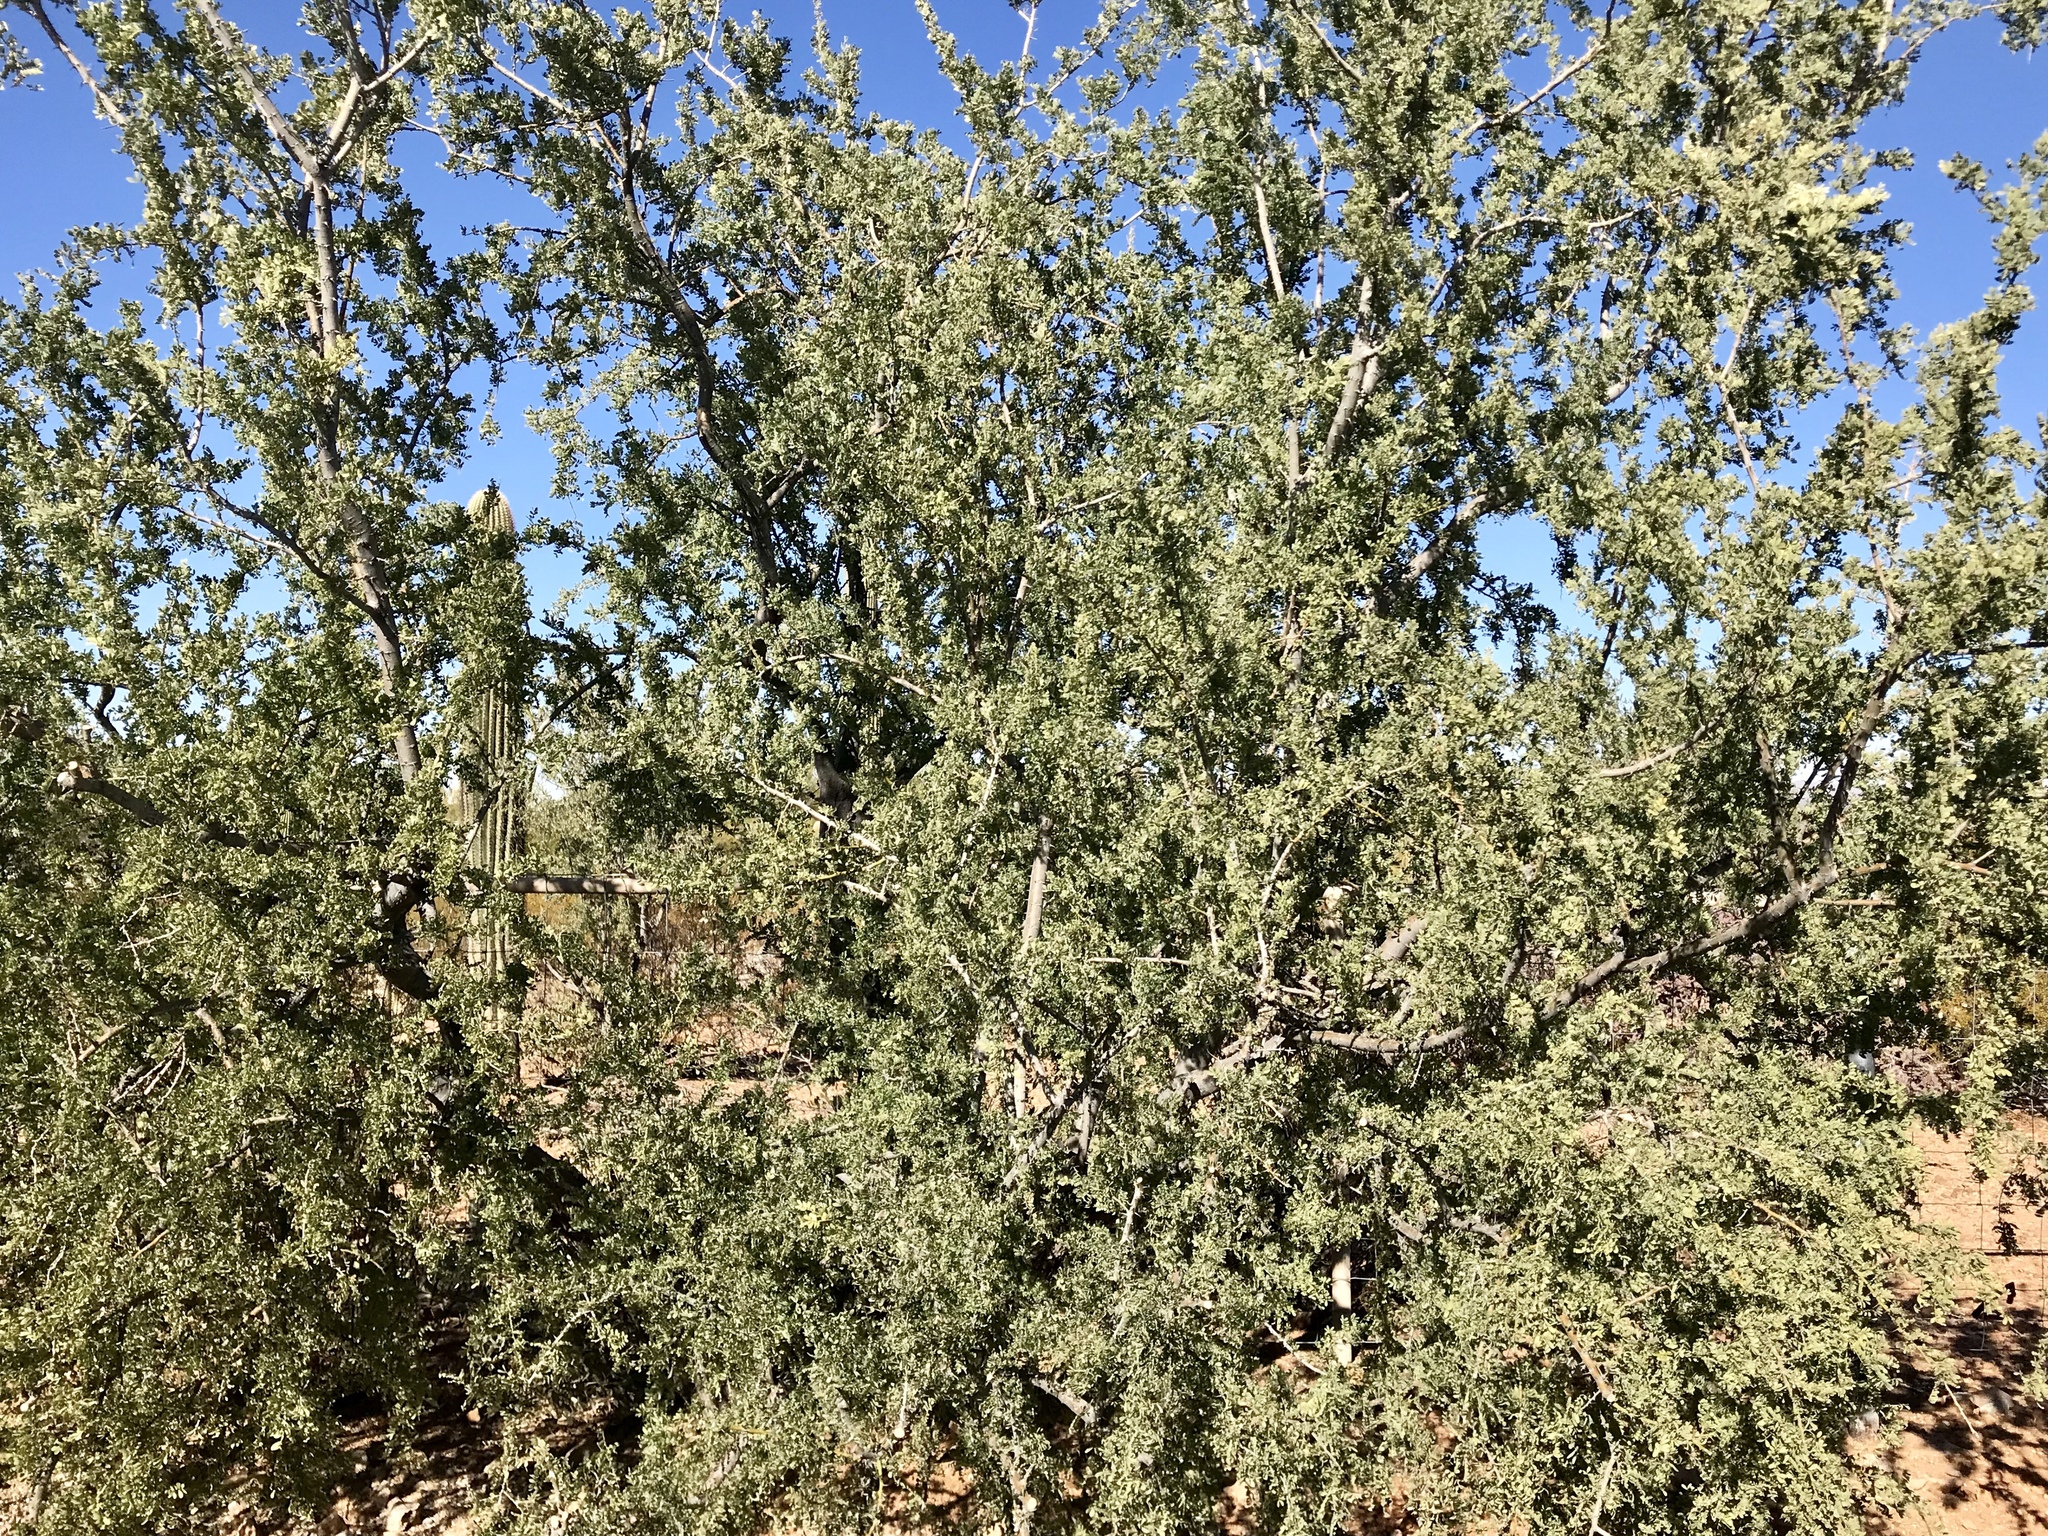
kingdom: Plantae
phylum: Tracheophyta
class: Magnoliopsida
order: Fabales
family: Fabaceae
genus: Olneya
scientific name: Olneya tesota
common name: Desert ironwood
